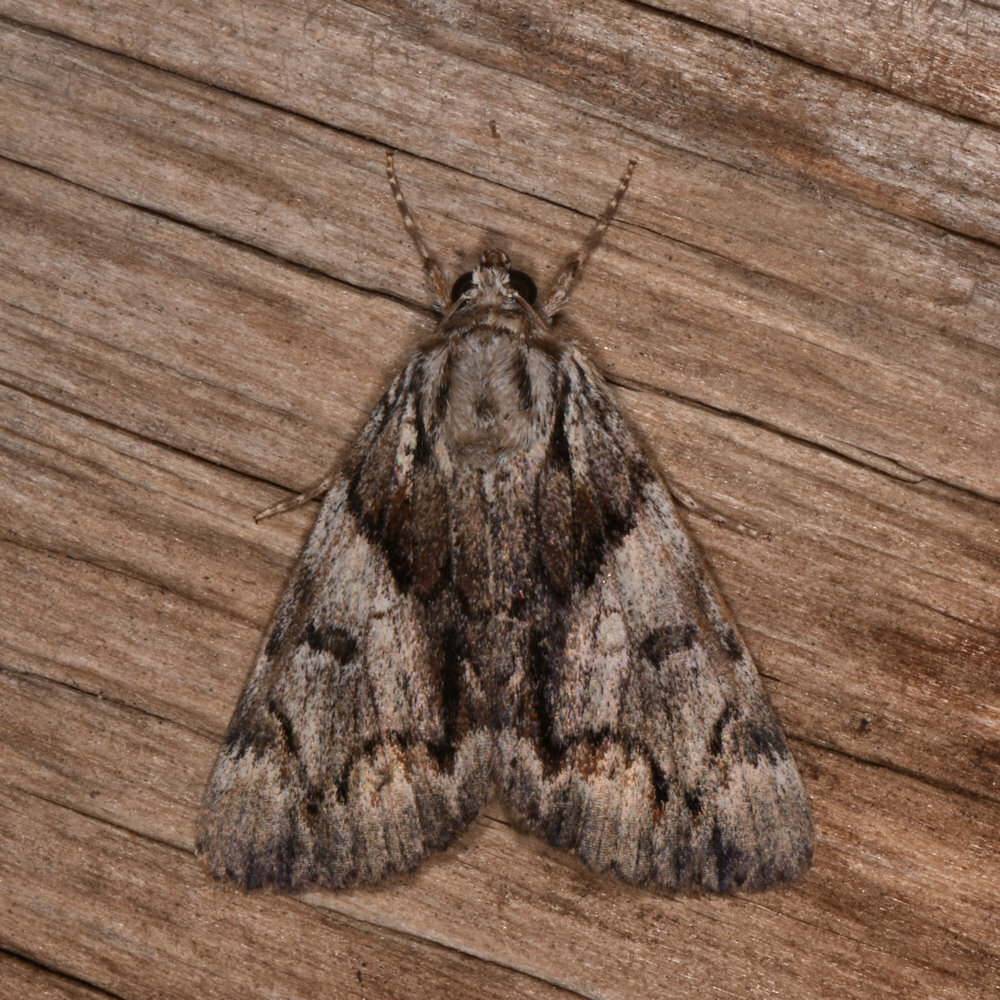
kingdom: Animalia
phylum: Arthropoda
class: Insecta
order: Lepidoptera
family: Erebidae
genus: Catocala
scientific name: Catocala blandula
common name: Charming underwing
